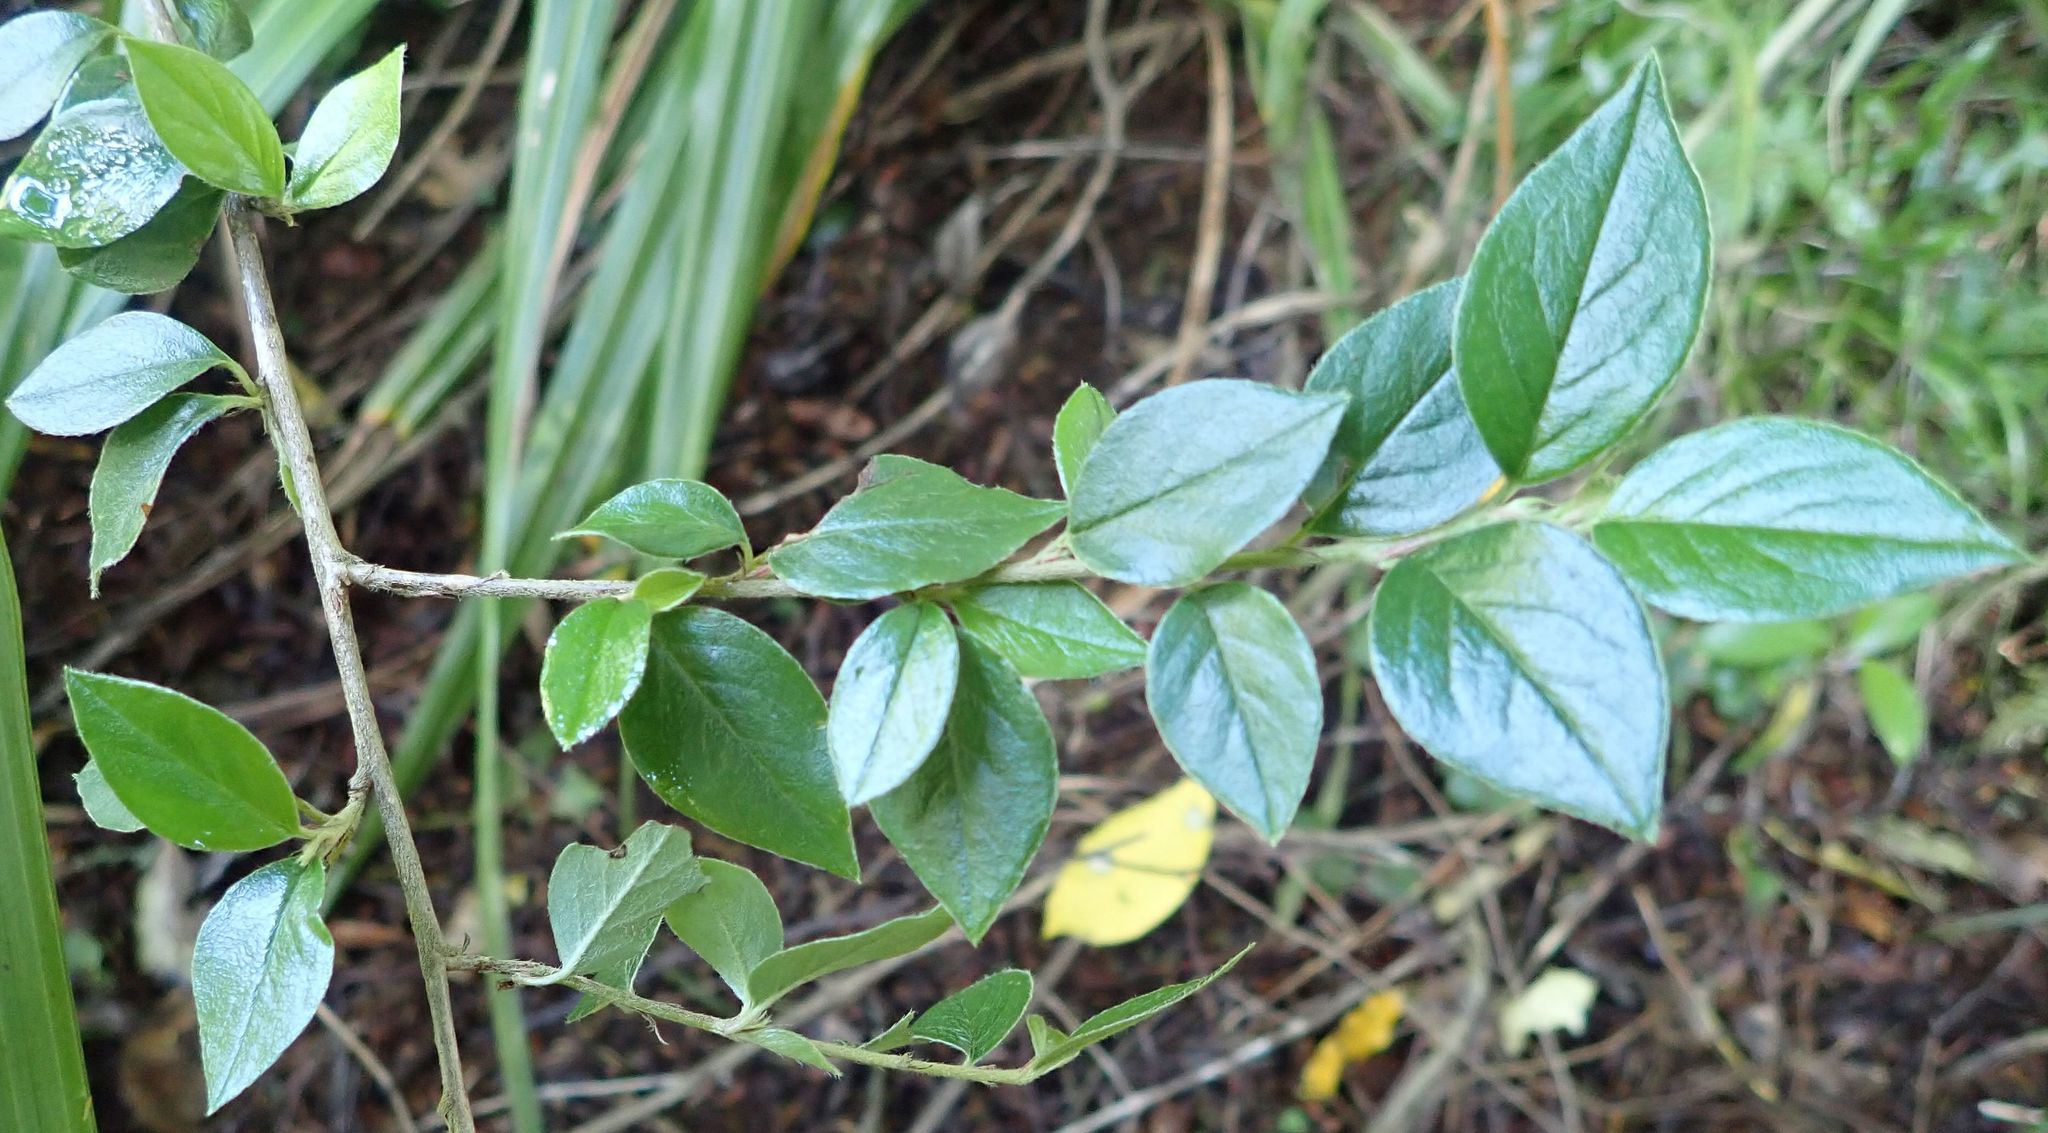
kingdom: Plantae
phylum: Tracheophyta
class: Magnoliopsida
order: Rosales
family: Rosaceae
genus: Cotoneaster
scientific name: Cotoneaster simonsii
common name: Himalayan cotoneaster
